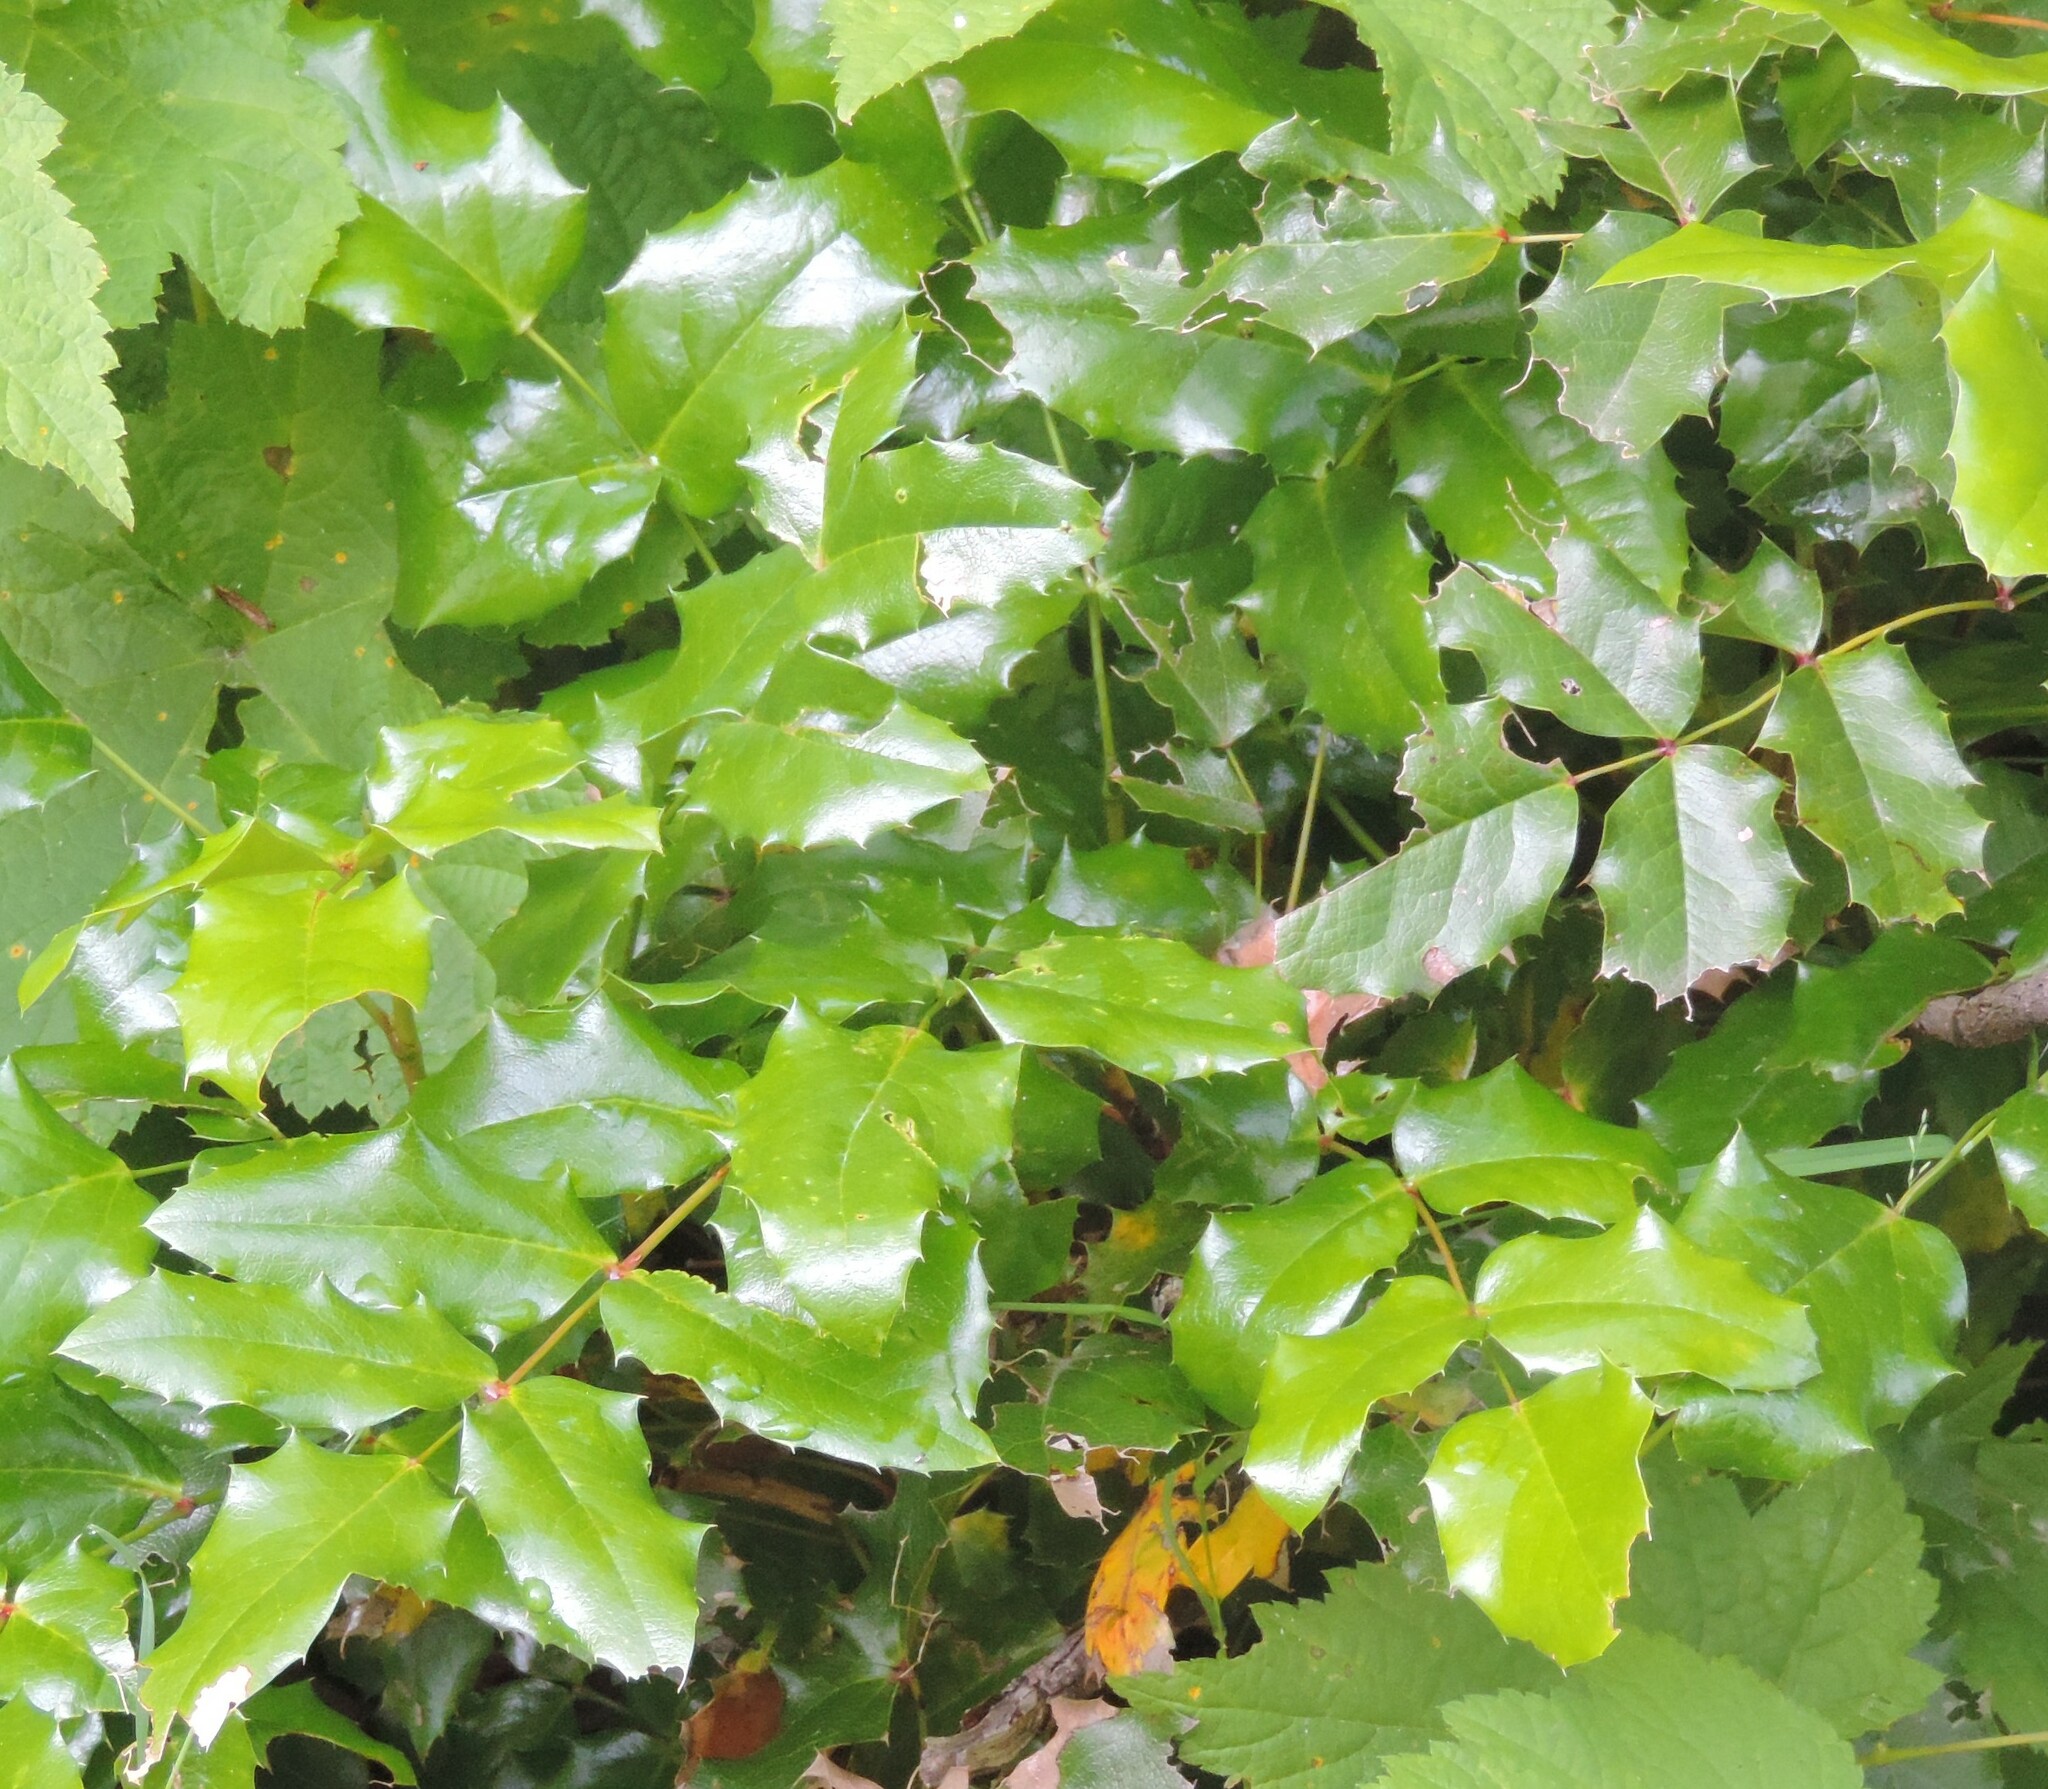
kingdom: Plantae
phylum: Tracheophyta
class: Magnoliopsida
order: Ranunculales
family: Berberidaceae
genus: Mahonia
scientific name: Mahonia aquifolium
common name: Oregon-grape
